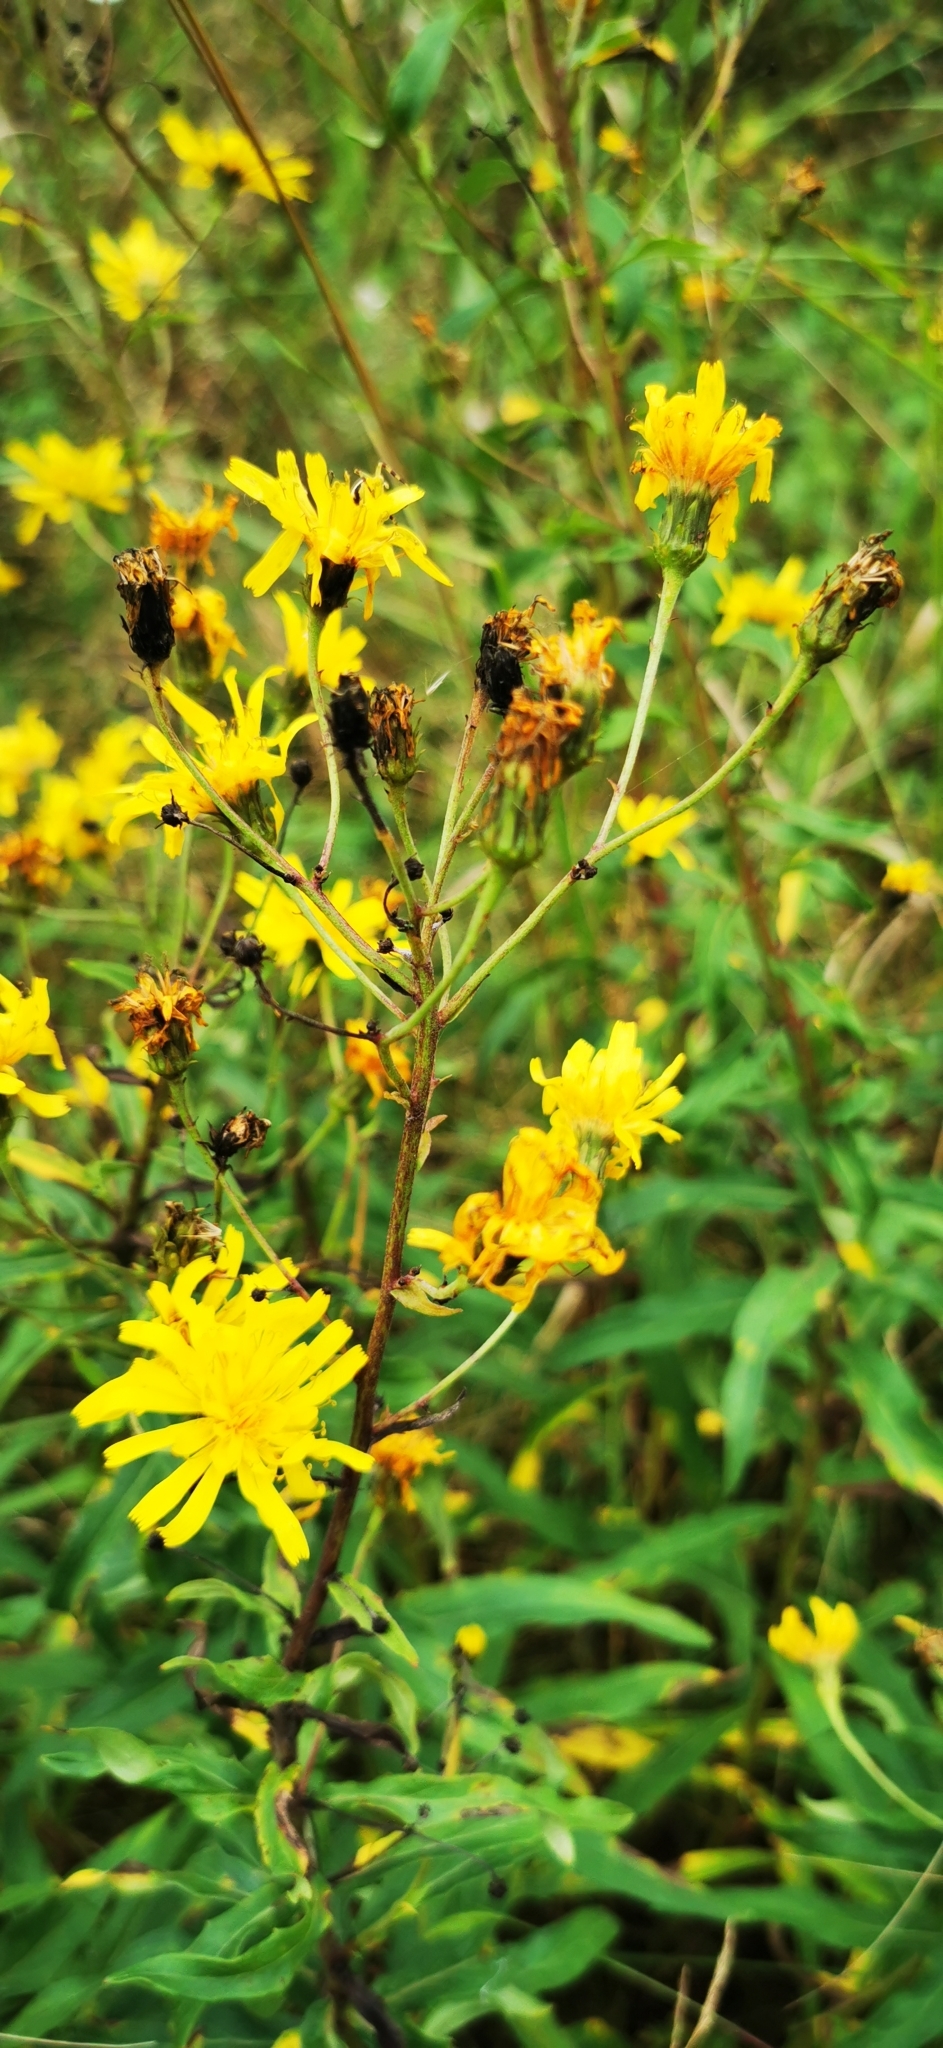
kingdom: Plantae
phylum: Tracheophyta
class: Magnoliopsida
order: Asterales
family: Asteraceae
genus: Hieracium
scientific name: Hieracium umbellatum
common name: Northern hawkweed
